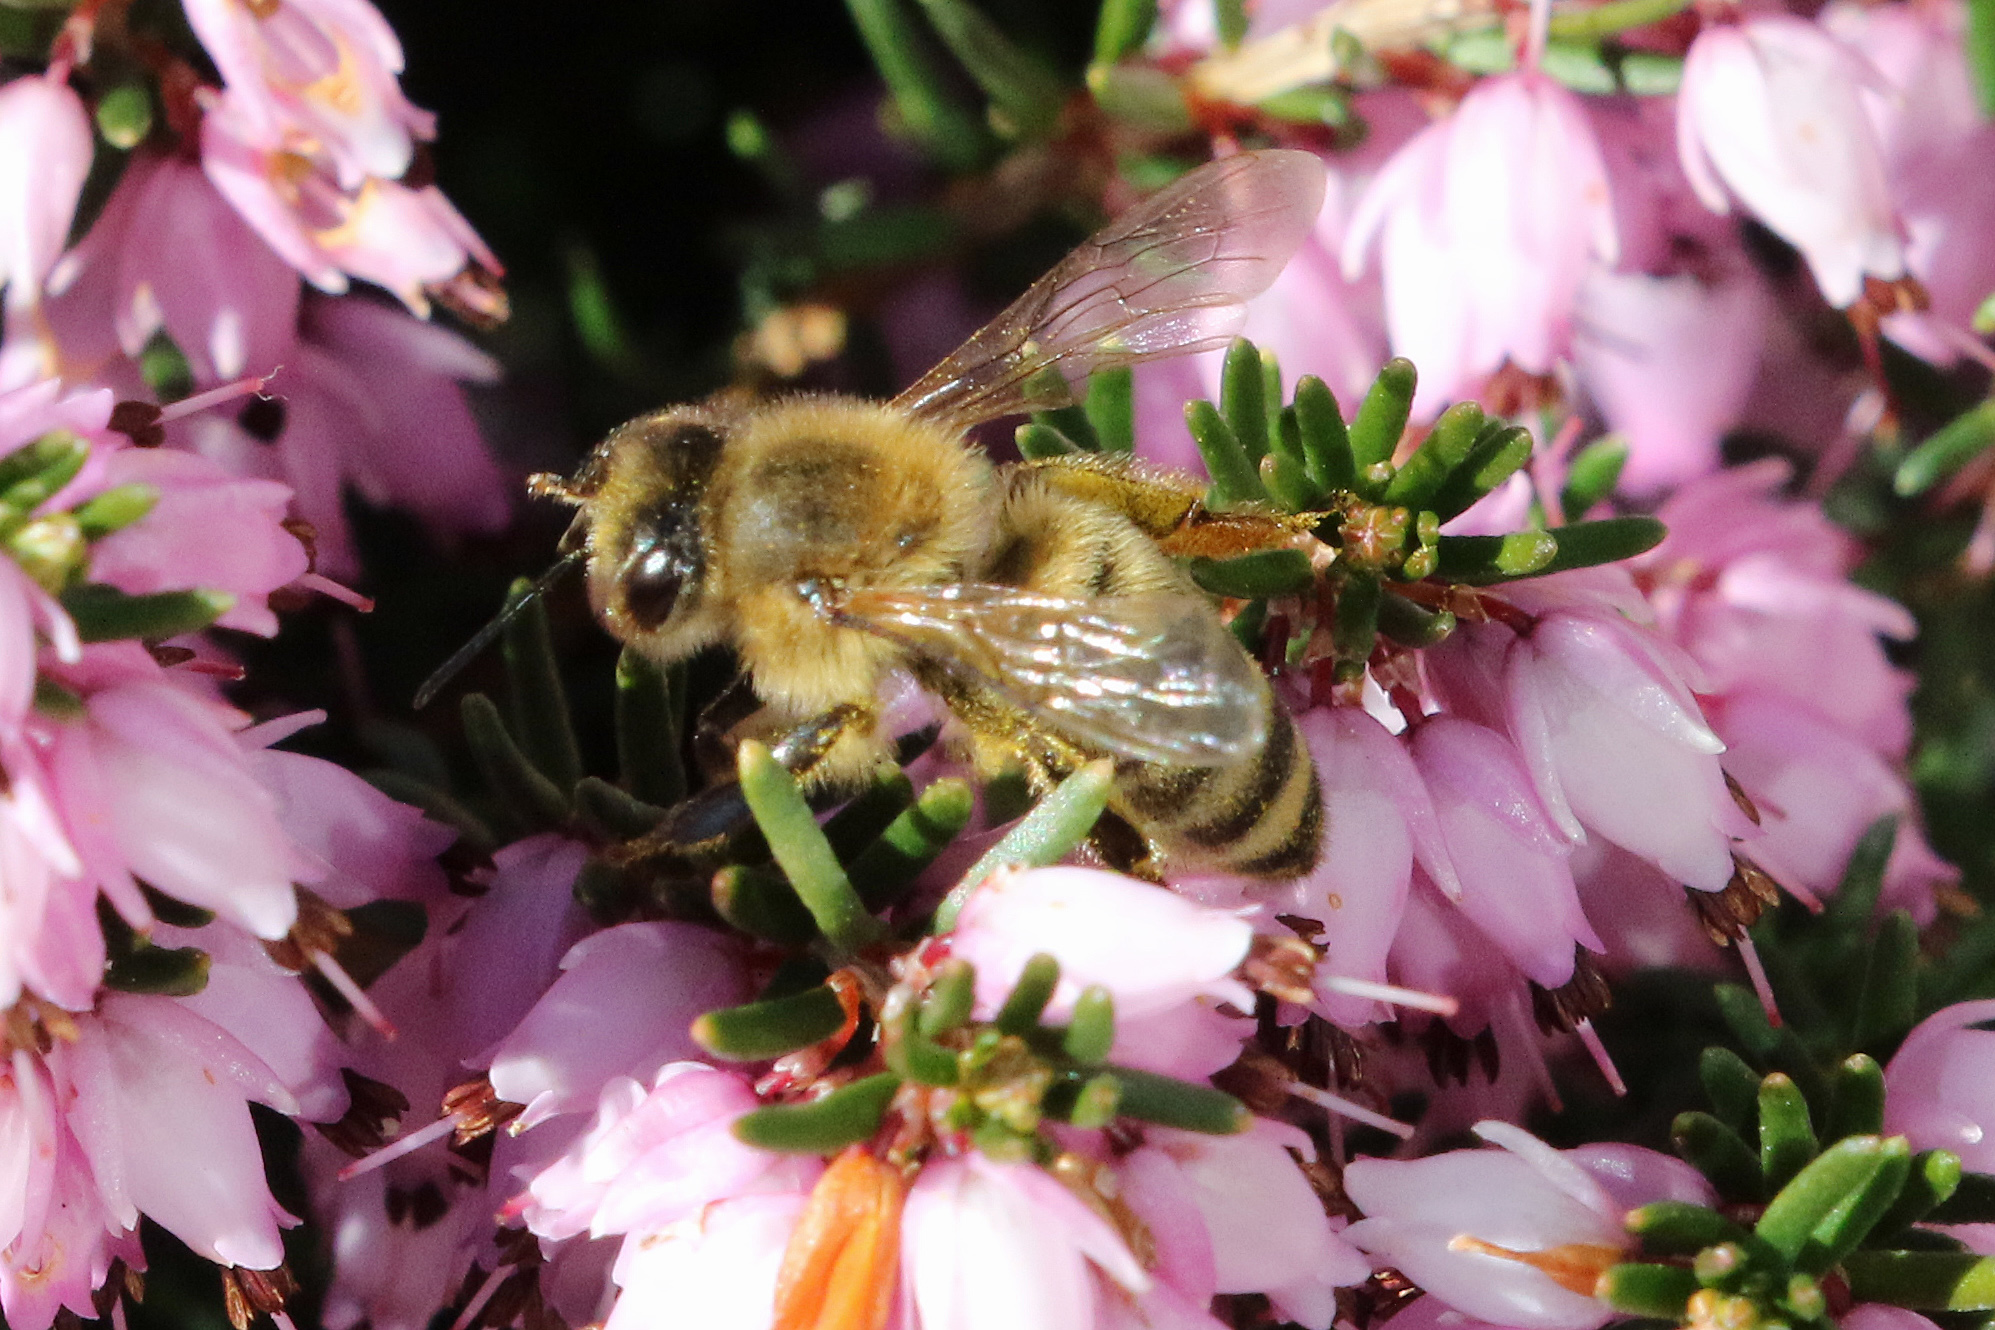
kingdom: Animalia
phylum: Arthropoda
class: Insecta
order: Hymenoptera
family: Apidae
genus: Apis
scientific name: Apis mellifera
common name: Honey bee
